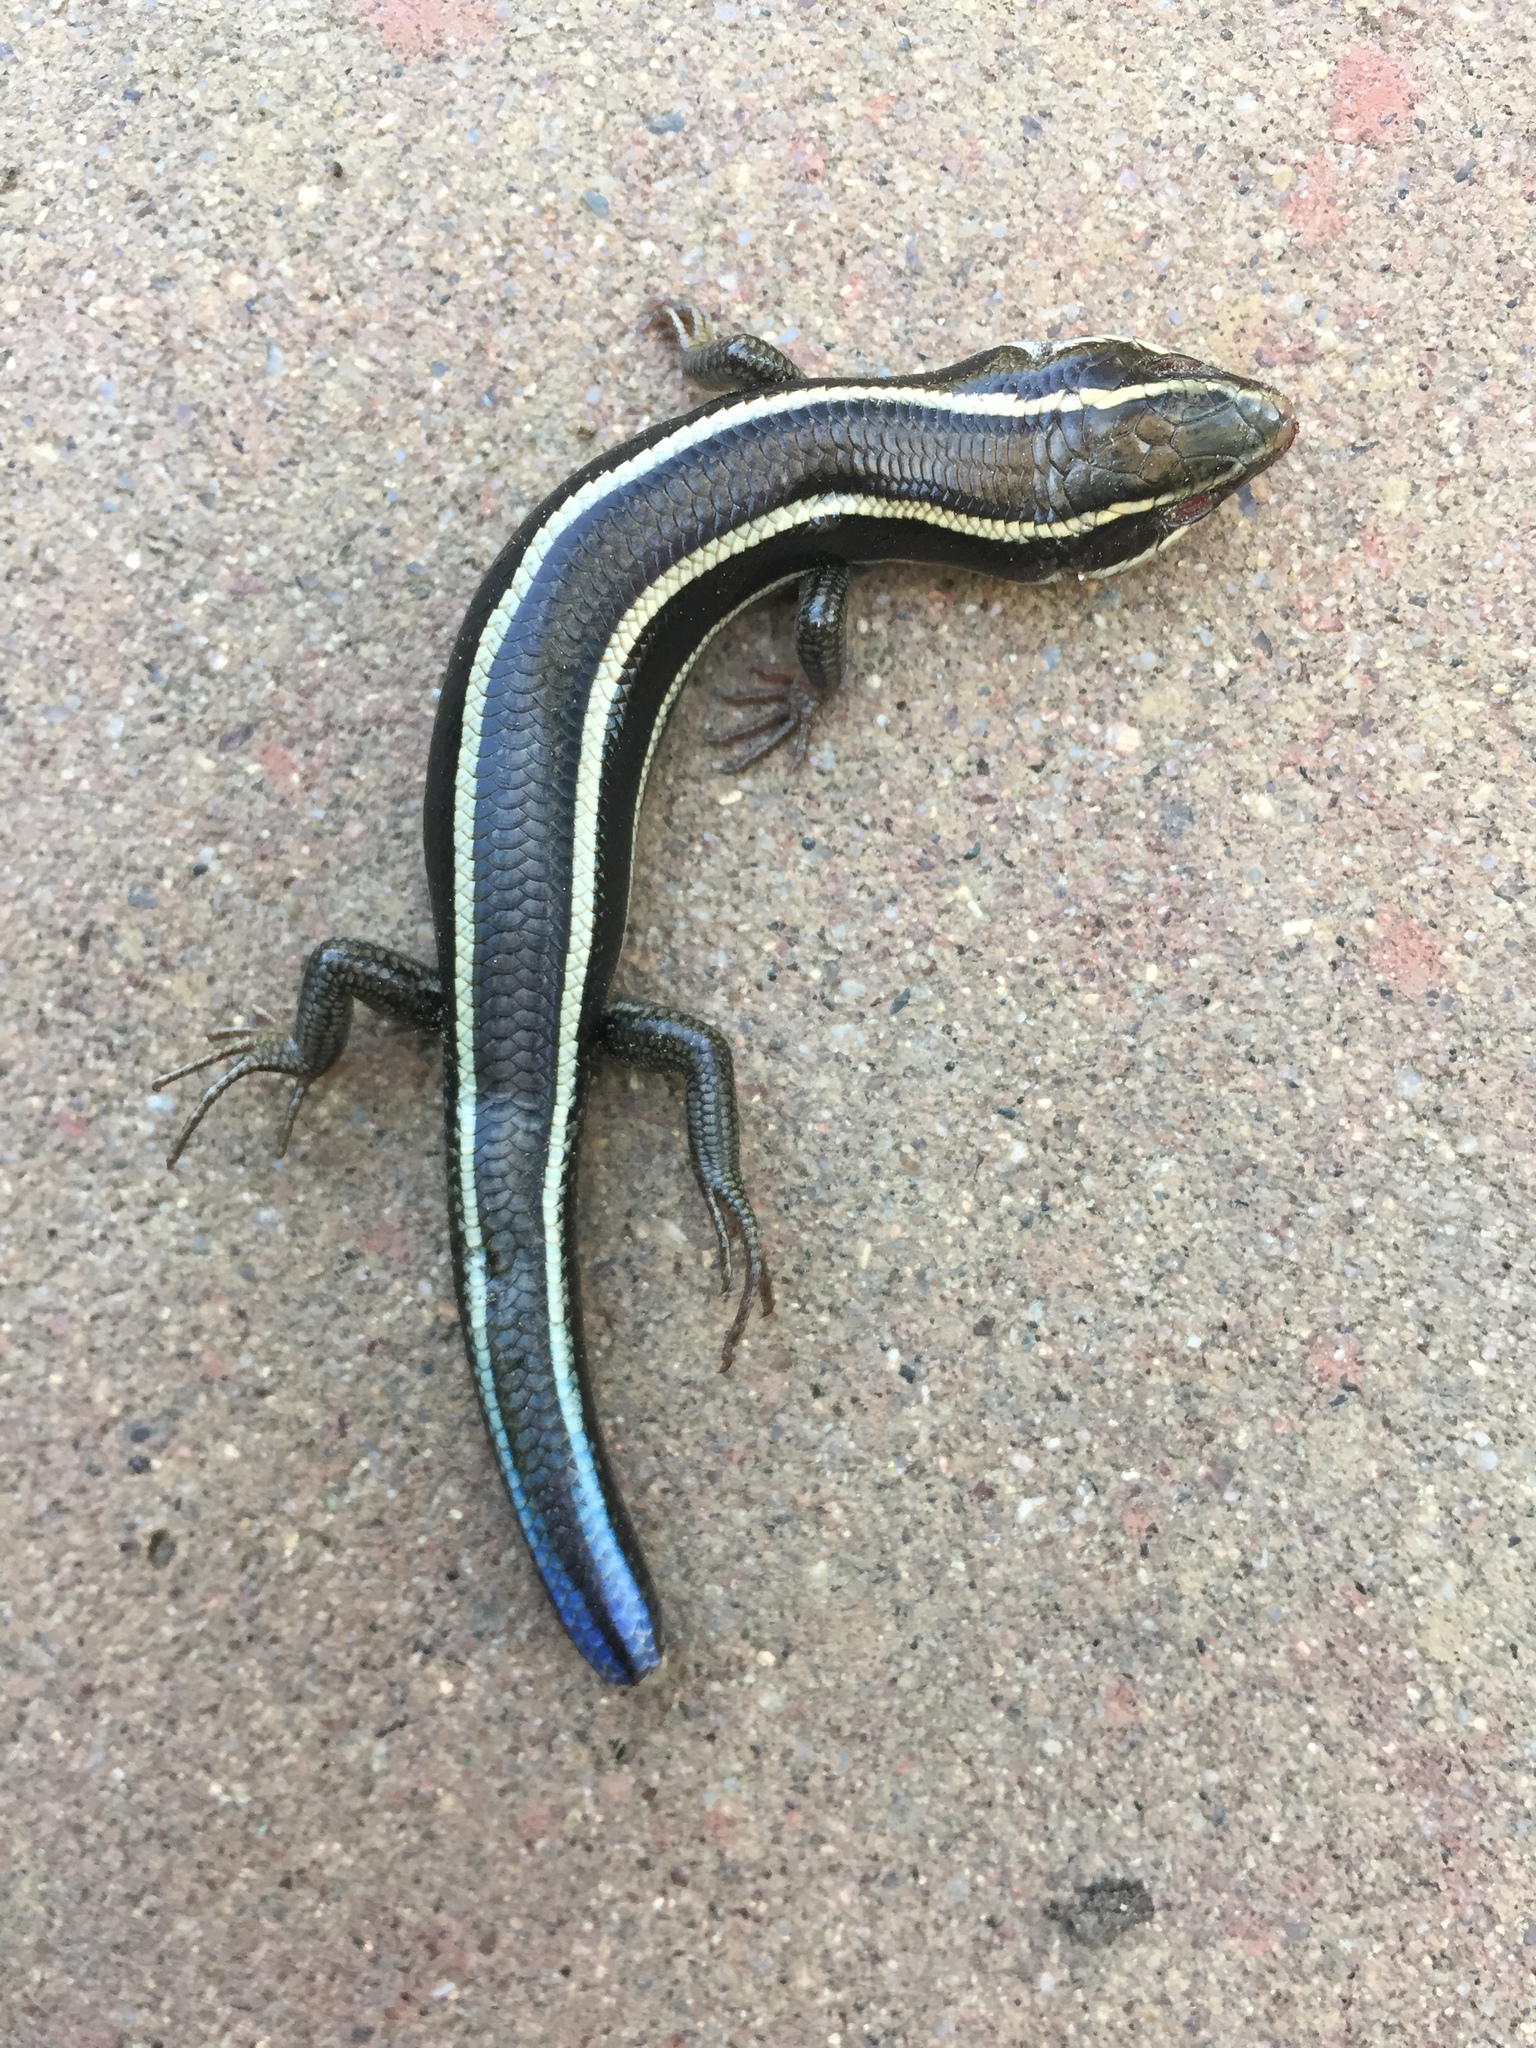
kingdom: Animalia
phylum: Chordata
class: Squamata
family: Scincidae
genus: Plestiodon
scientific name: Plestiodon skiltonianus
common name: Coronado island skink [interparietalis]
